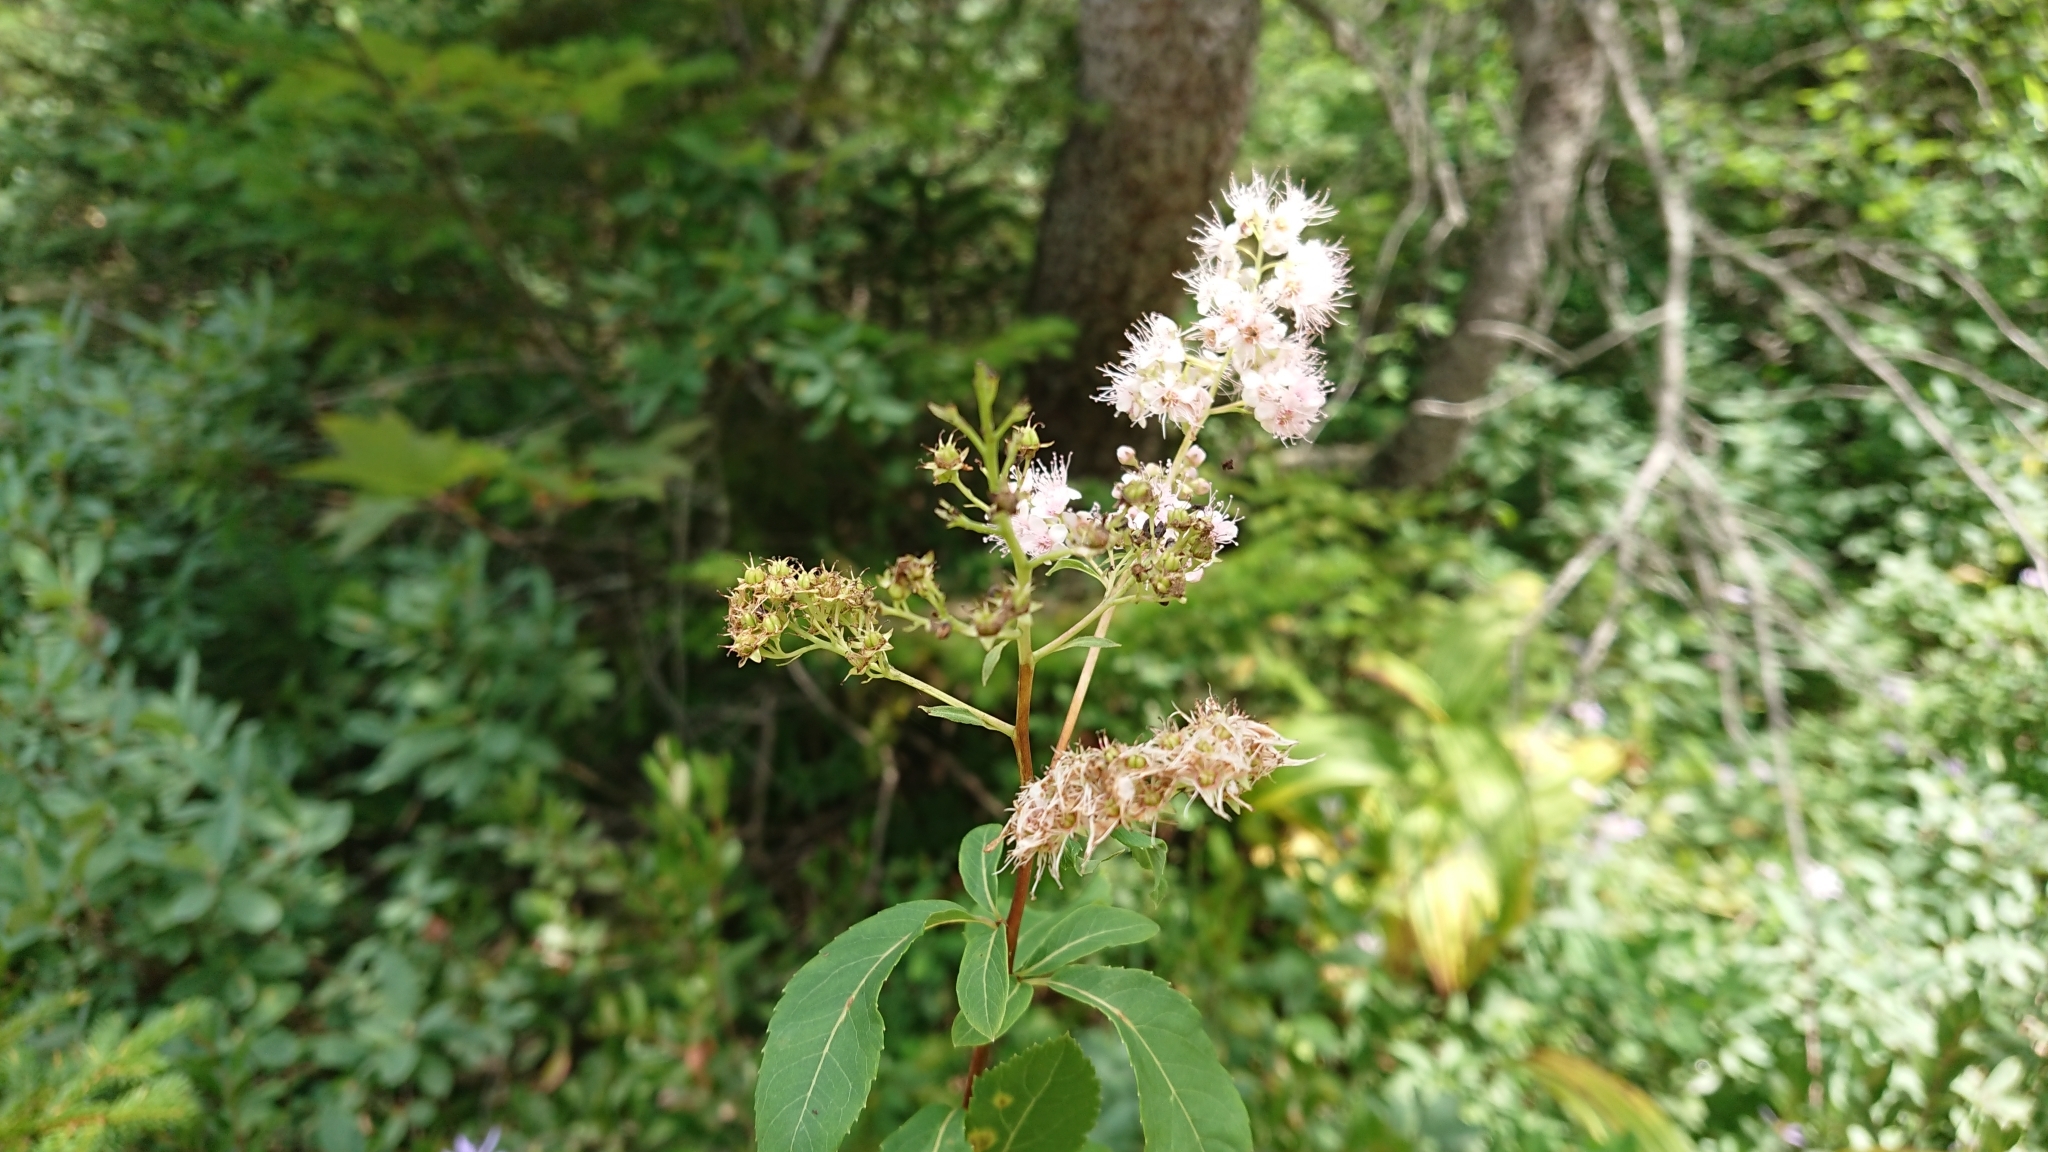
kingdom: Plantae
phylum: Tracheophyta
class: Magnoliopsida
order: Rosales
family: Rosaceae
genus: Spiraea
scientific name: Spiraea alba
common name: Pale bridewort
